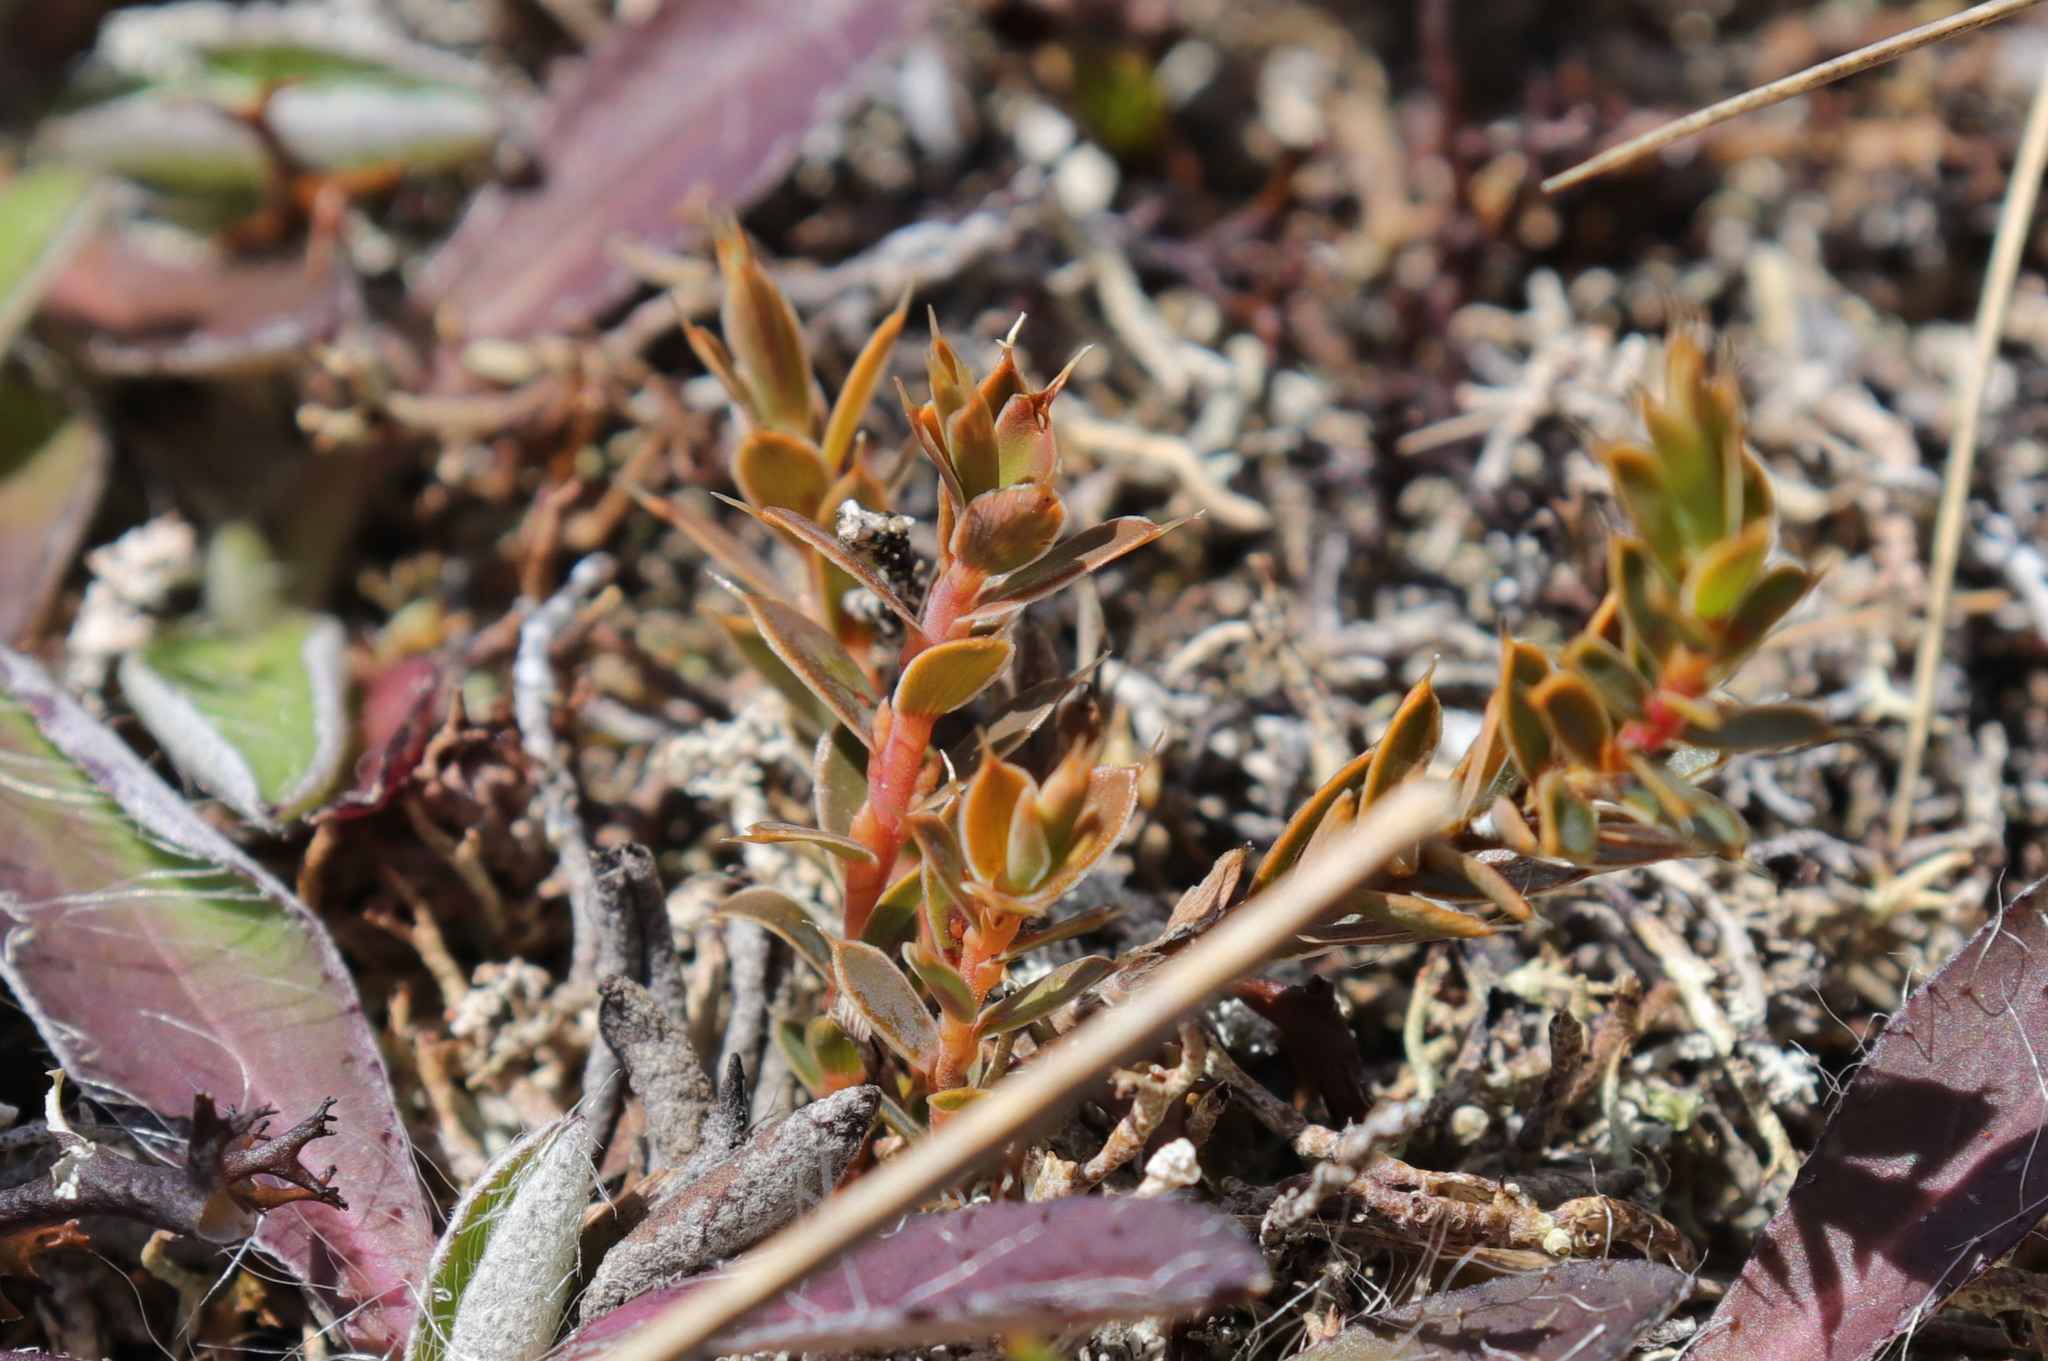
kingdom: Plantae
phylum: Tracheophyta
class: Magnoliopsida
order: Ericales
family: Ericaceae
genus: Styphelia
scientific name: Styphelia nesophila
